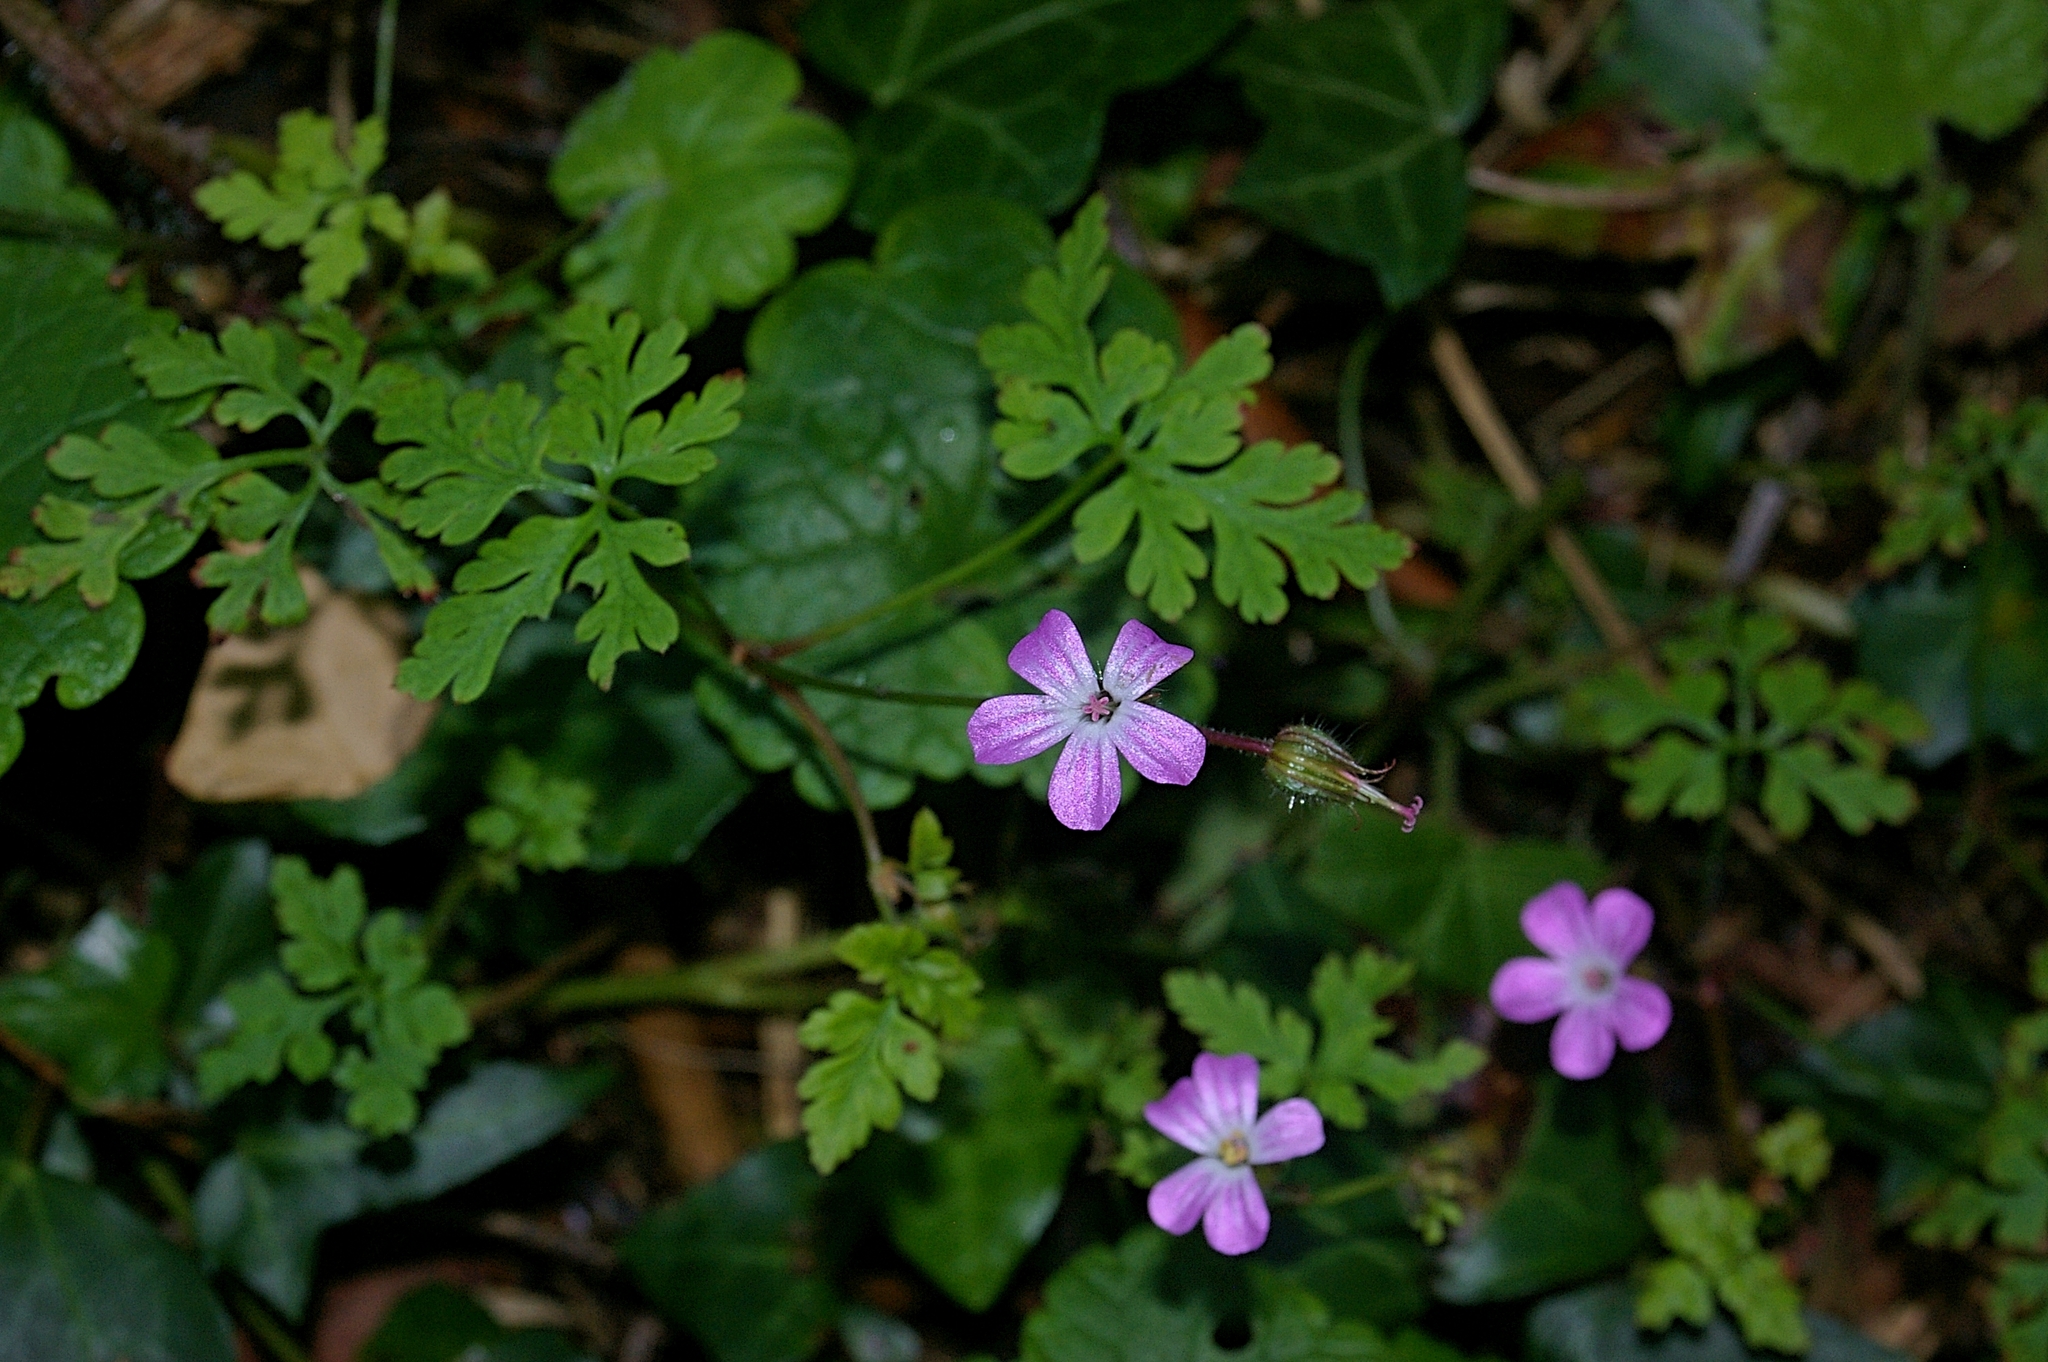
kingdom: Plantae
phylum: Tracheophyta
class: Magnoliopsida
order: Geraniales
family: Geraniaceae
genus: Geranium
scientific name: Geranium robertianum
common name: Herb-robert
